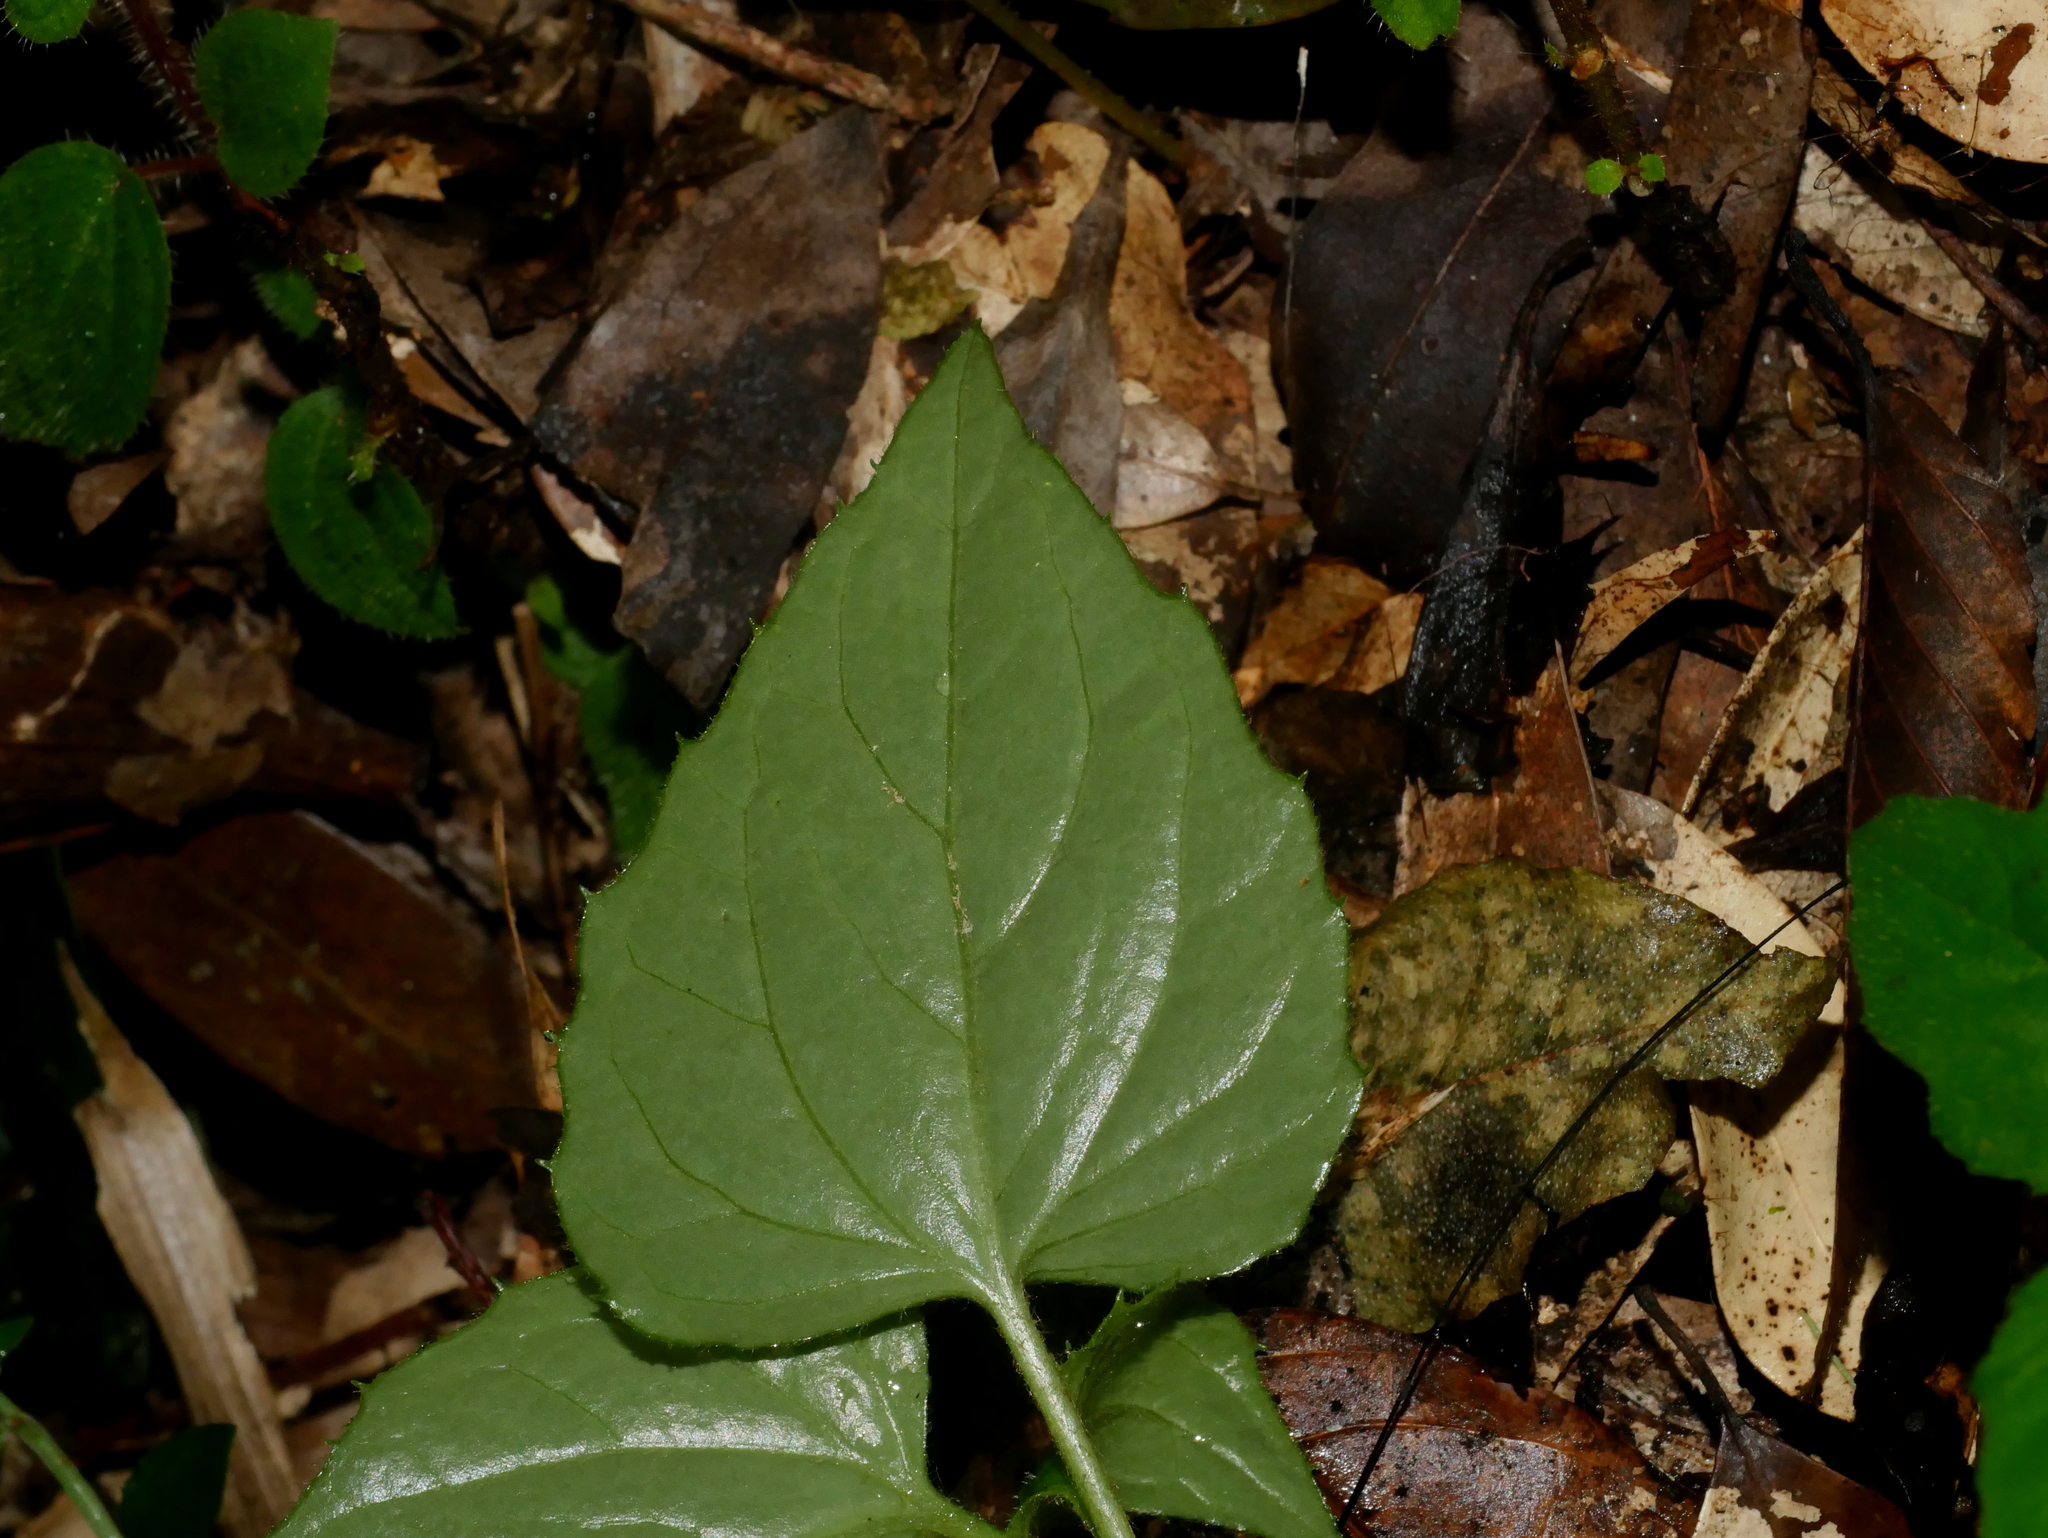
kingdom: Plantae
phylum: Tracheophyta
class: Magnoliopsida
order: Asterales
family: Asteraceae
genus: Ainsliaea
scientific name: Ainsliaea macroclinidioides
